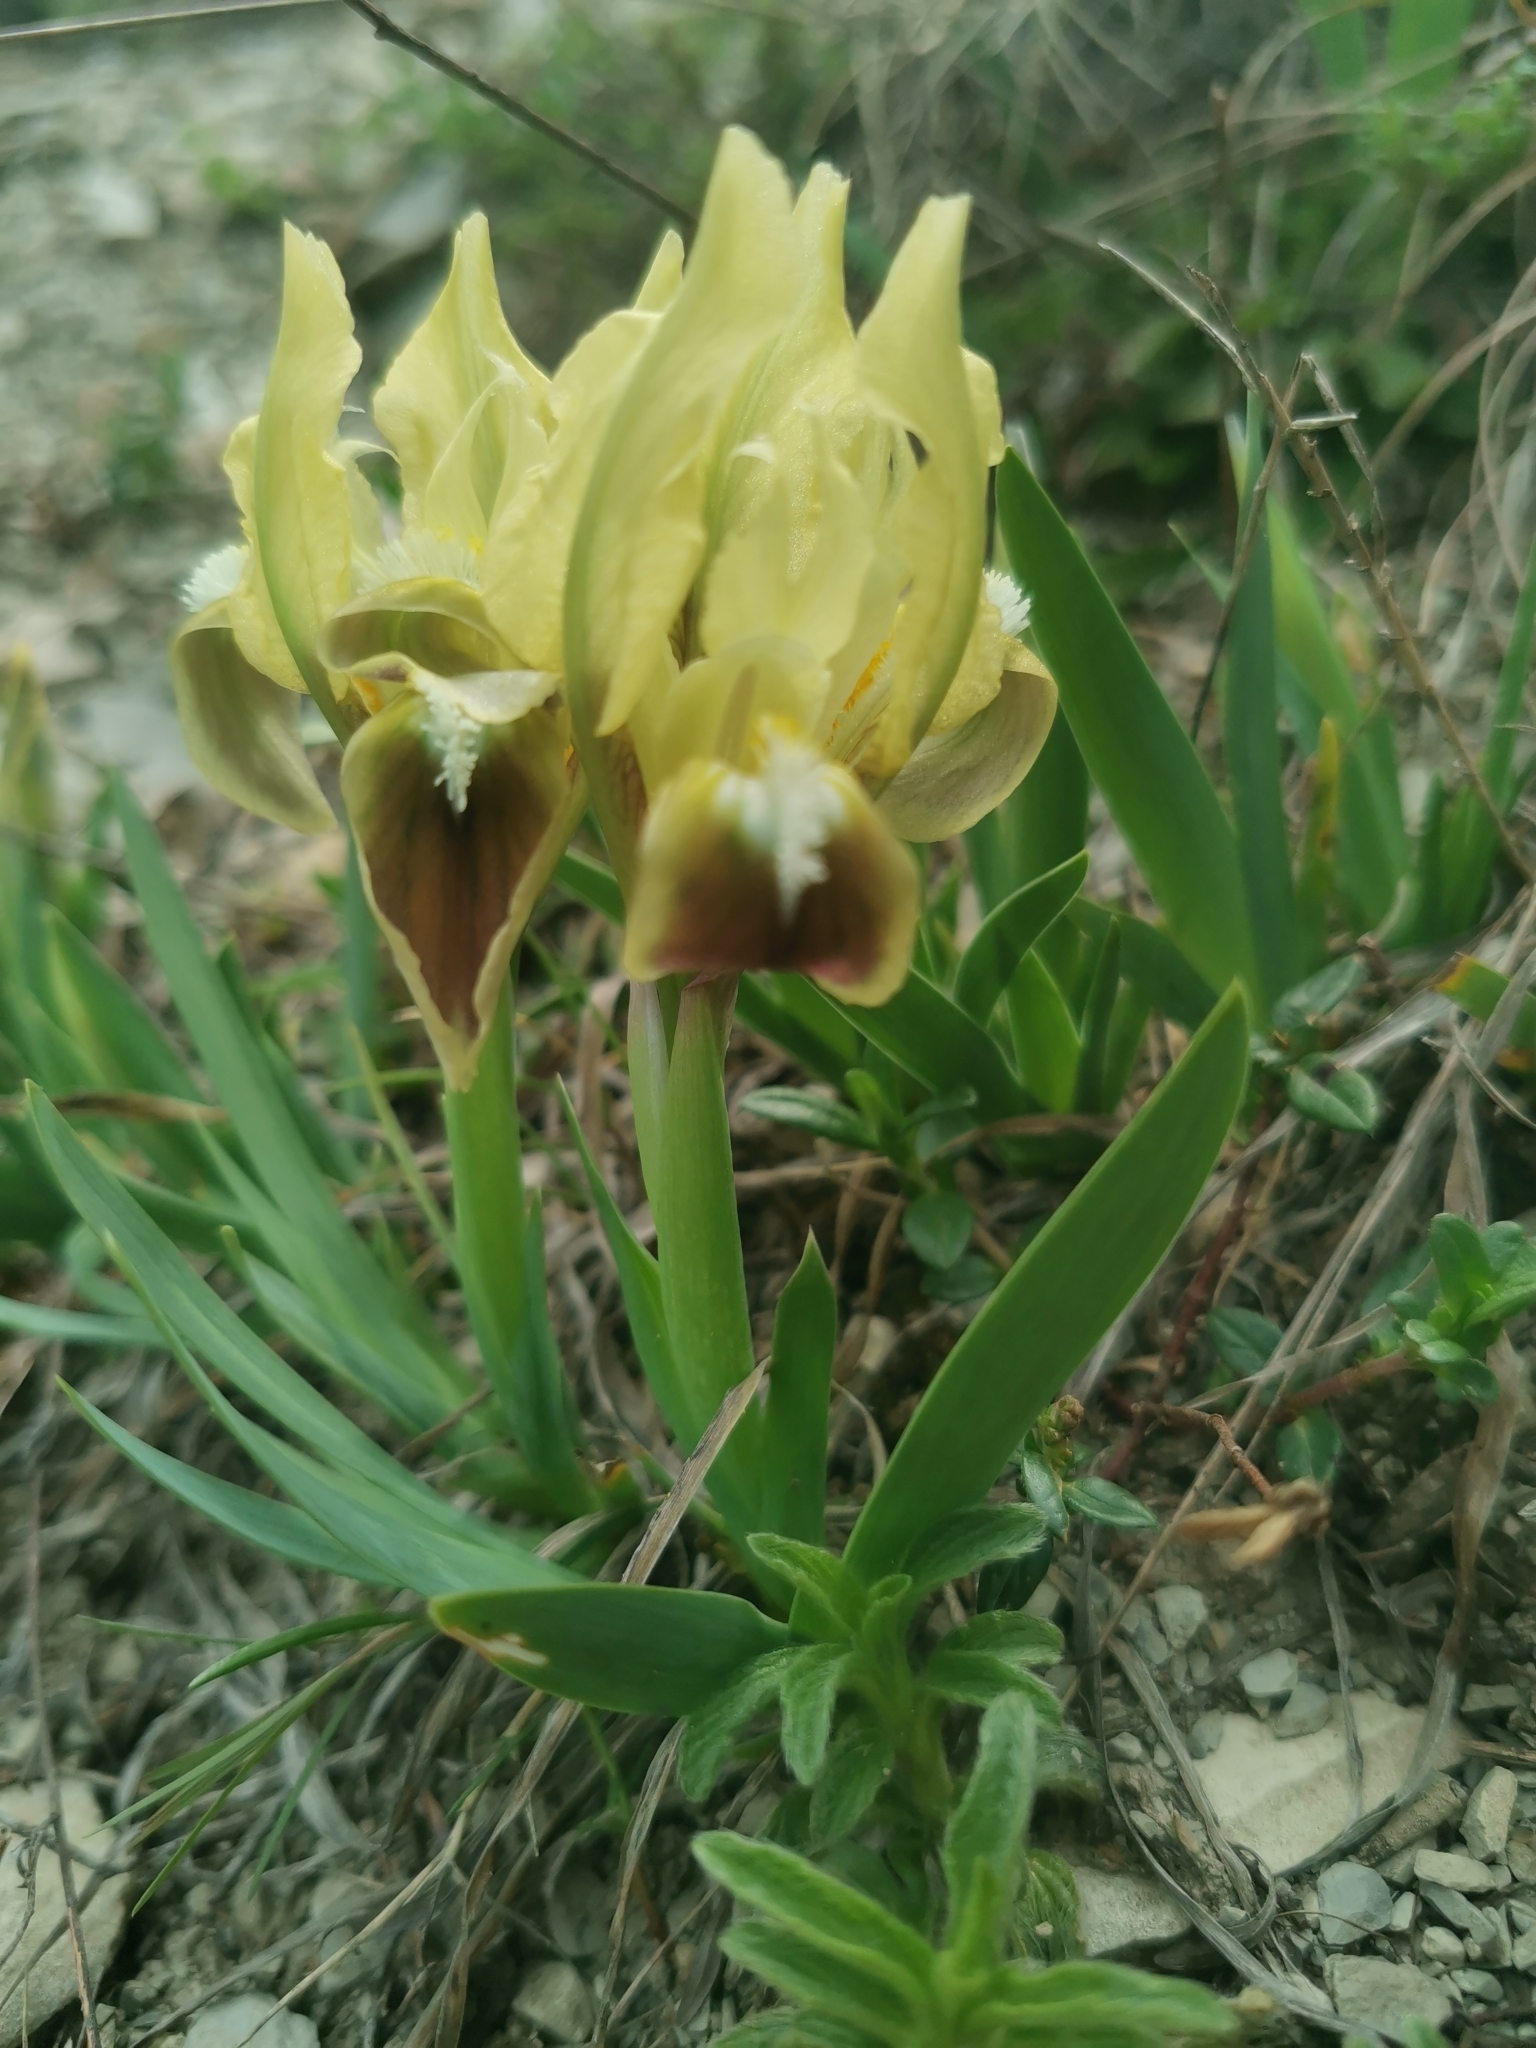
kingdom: Plantae
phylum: Tracheophyta
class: Liliopsida
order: Asparagales
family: Iridaceae
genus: Iris
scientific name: Iris pumila
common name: Dwarf iris
